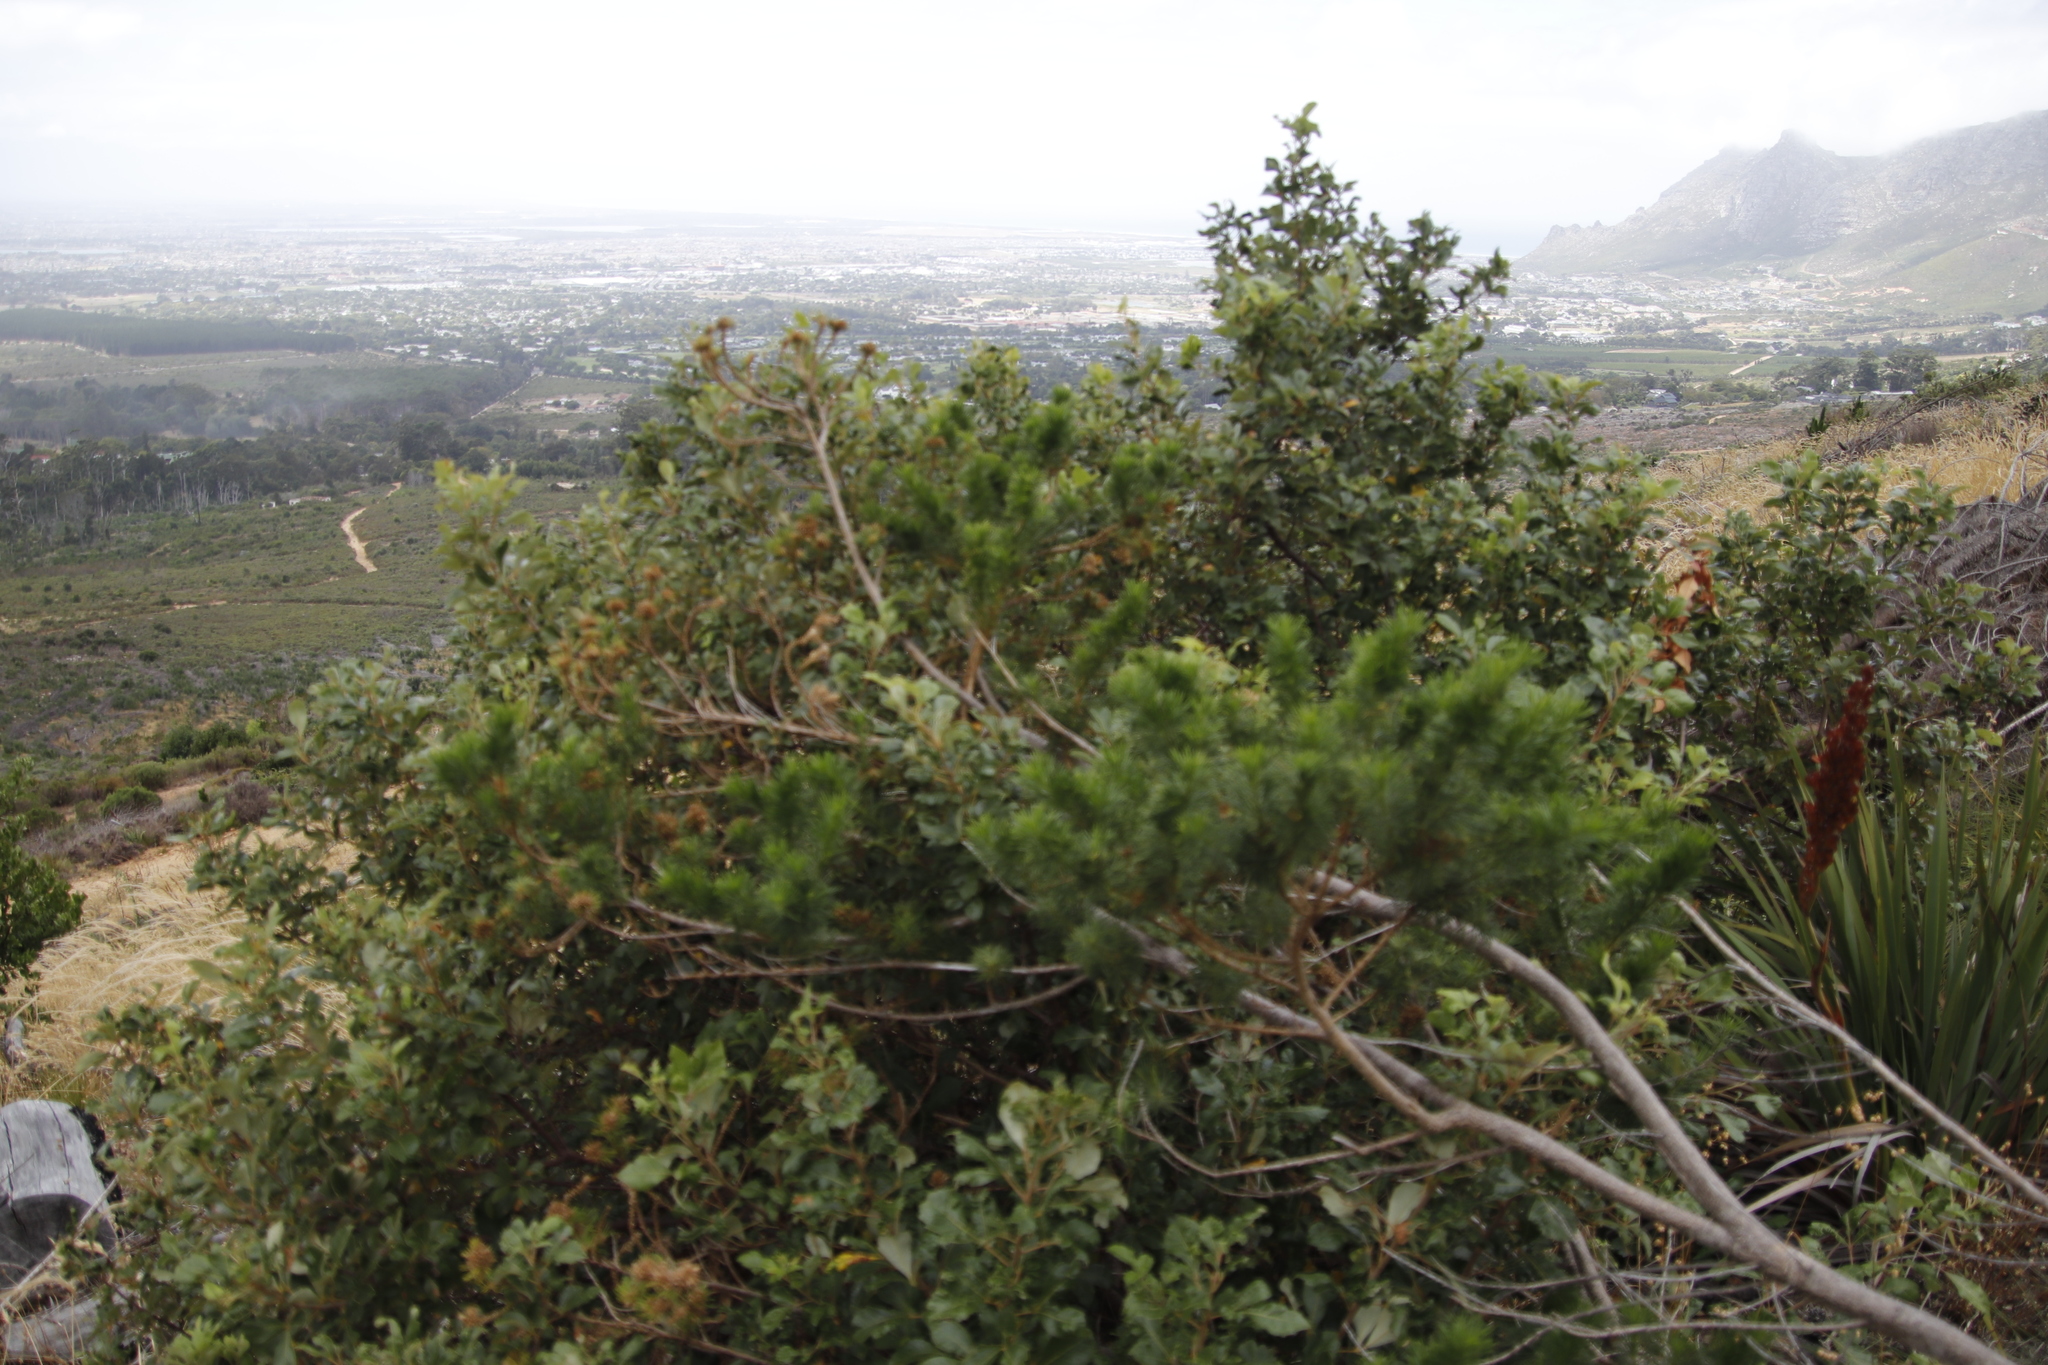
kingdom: Plantae
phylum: Tracheophyta
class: Magnoliopsida
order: Sapindales
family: Anacardiaceae
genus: Searsia
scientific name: Searsia tomentosa
